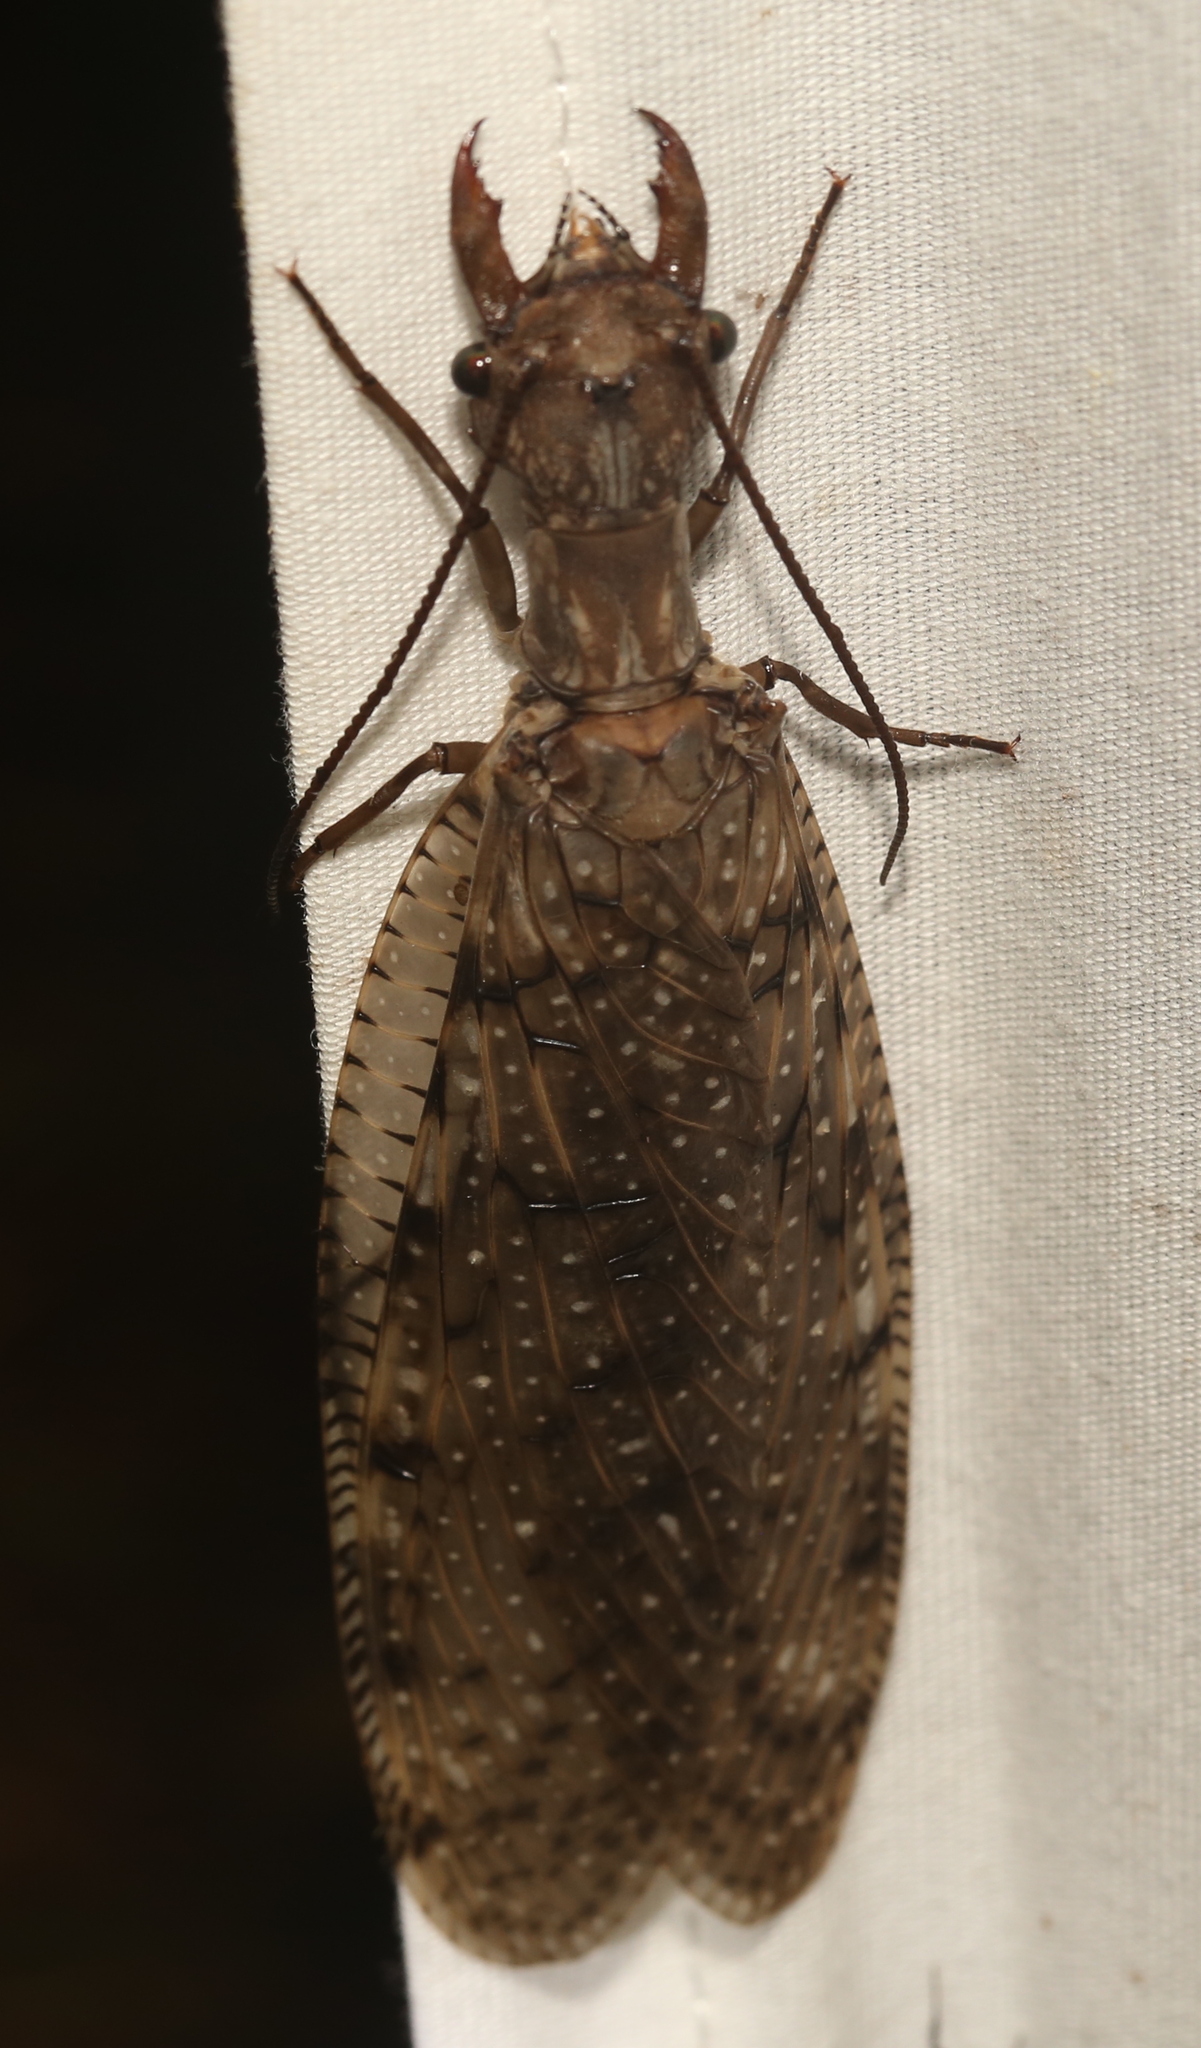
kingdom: Animalia
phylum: Arthropoda
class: Insecta
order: Megaloptera
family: Corydalidae
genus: Corydalus
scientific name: Corydalus cornutus
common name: Dobsonfly
